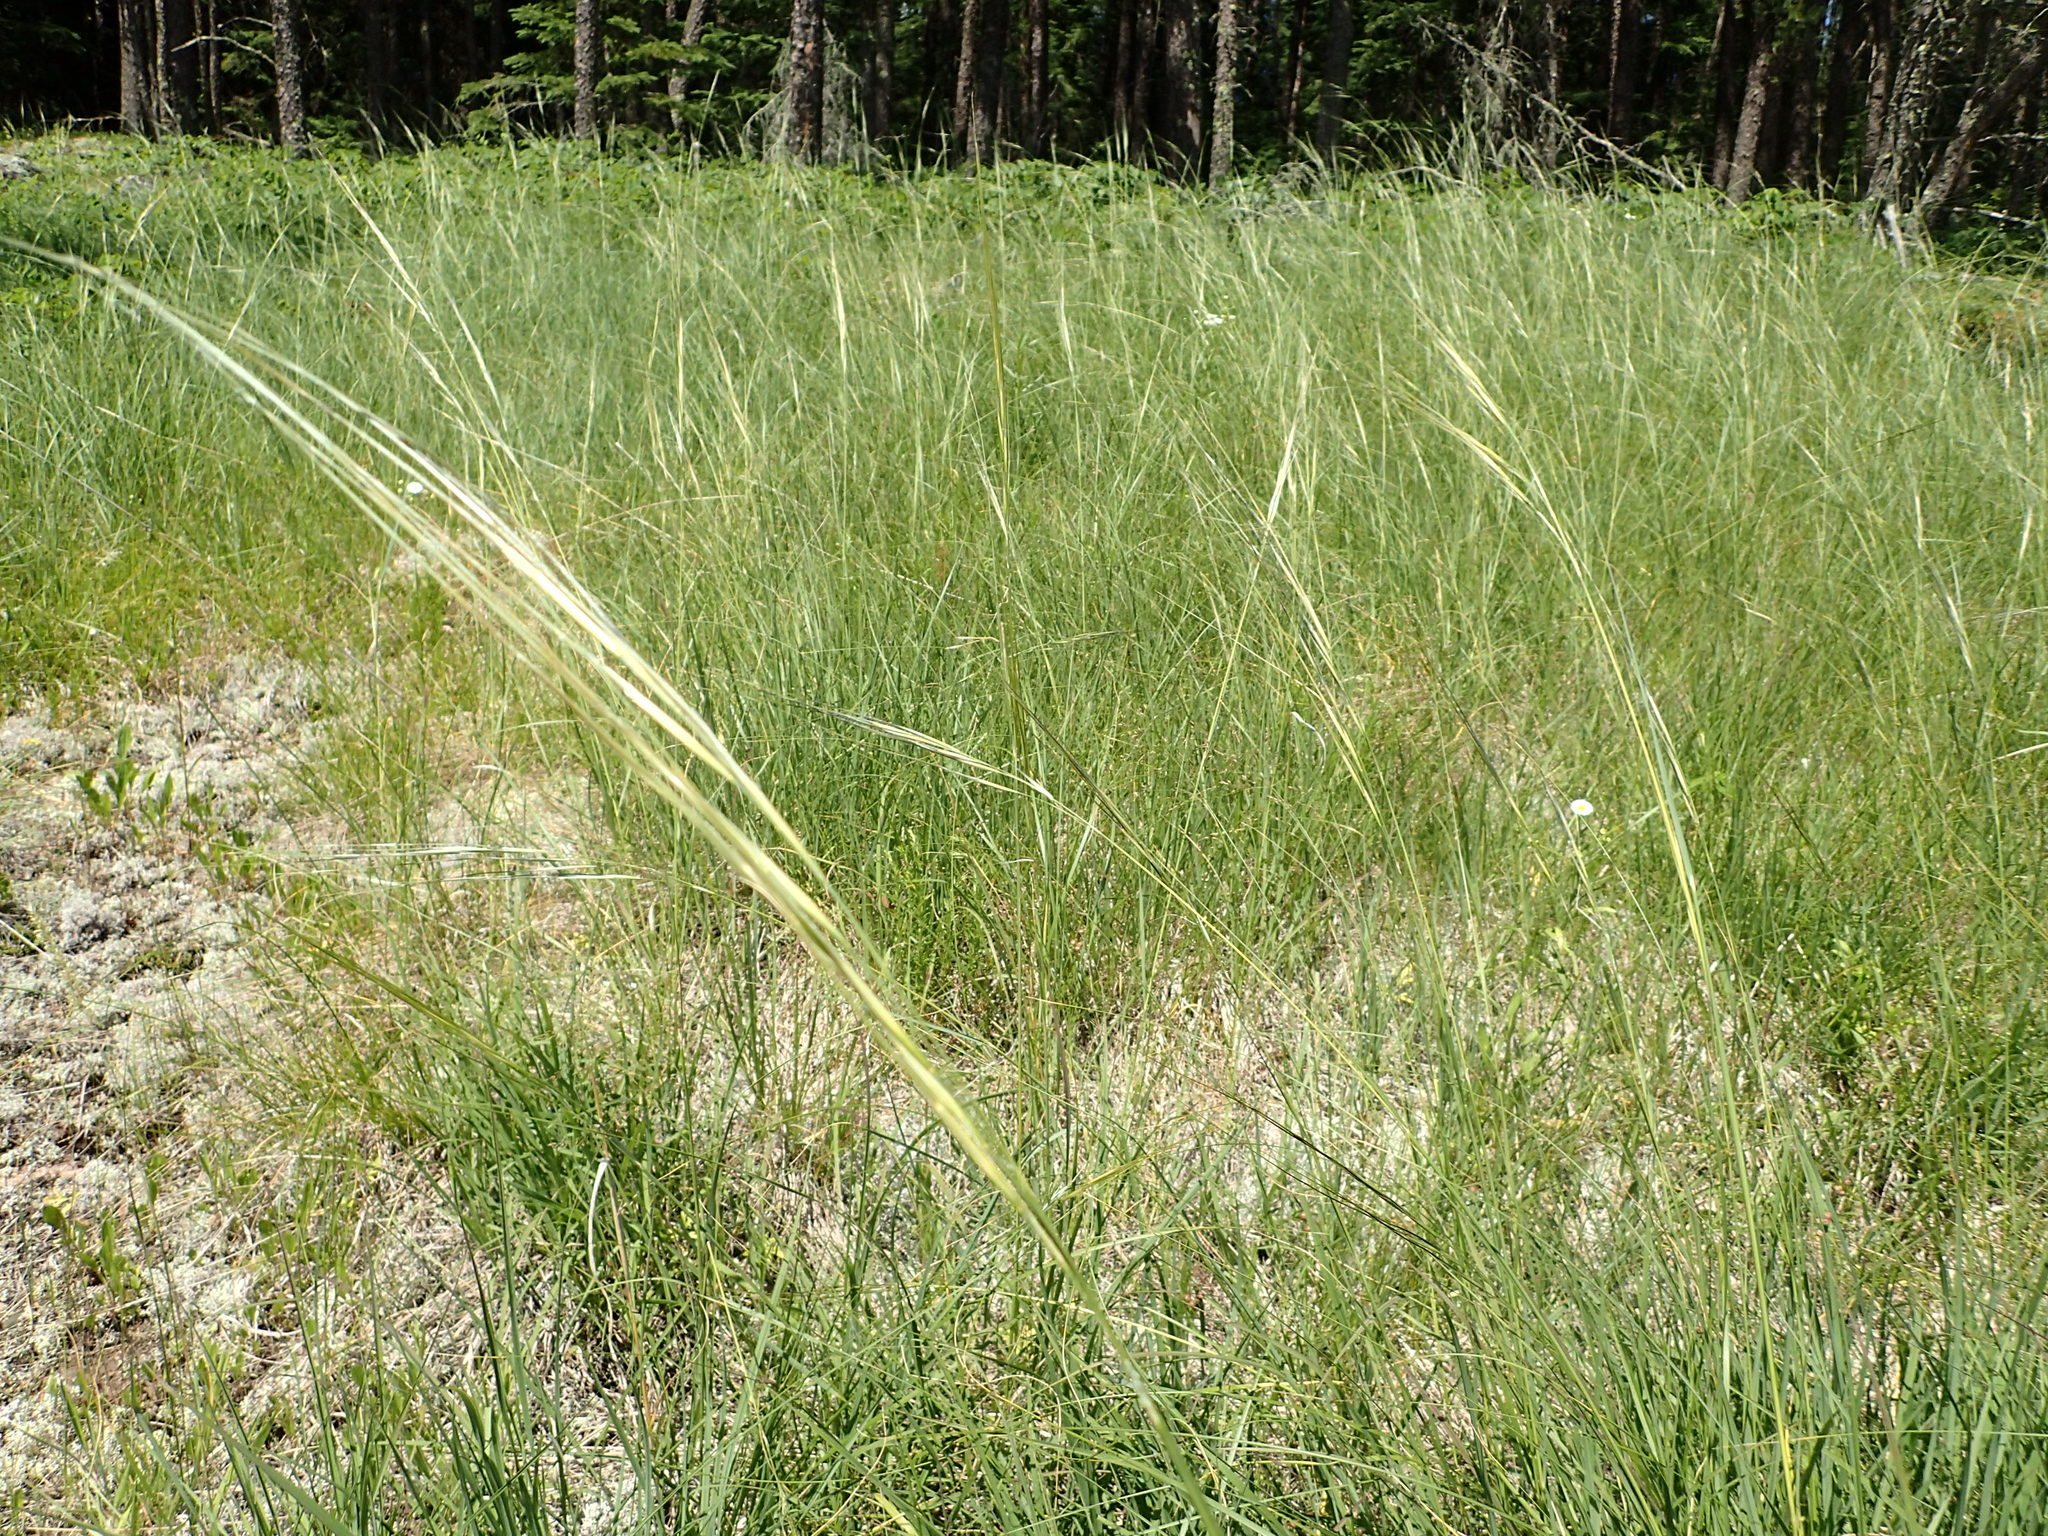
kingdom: Plantae
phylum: Tracheophyta
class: Liliopsida
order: Poales
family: Poaceae
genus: Hesperostipa
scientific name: Hesperostipa spartea
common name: Porcupine grass
